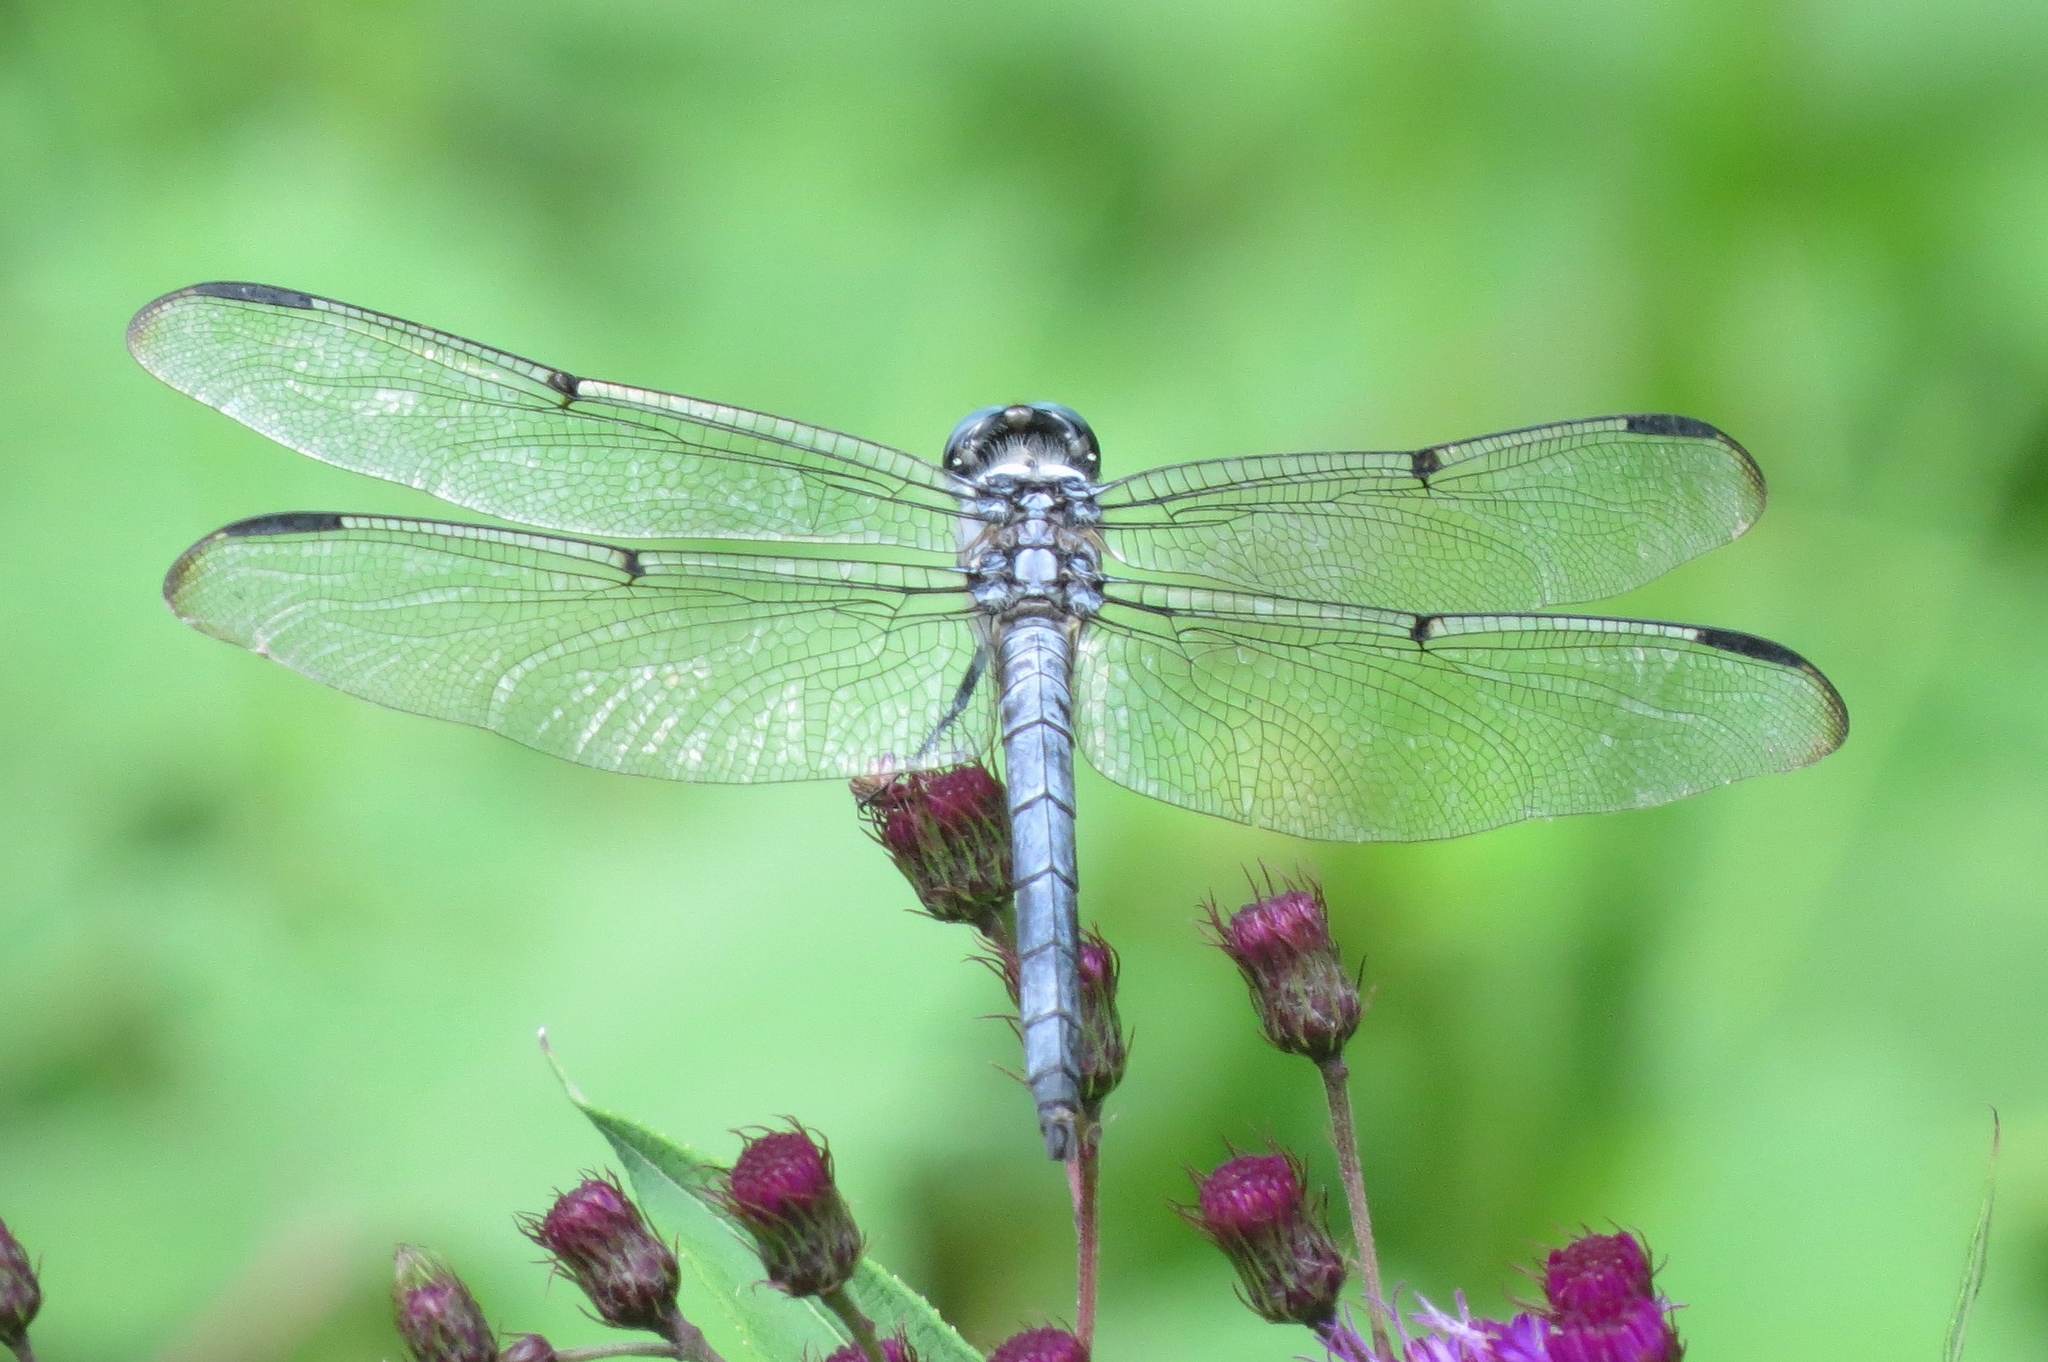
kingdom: Animalia
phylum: Arthropoda
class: Insecta
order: Odonata
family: Libellulidae
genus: Libellula
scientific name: Libellula vibrans
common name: Great blue skimmer
